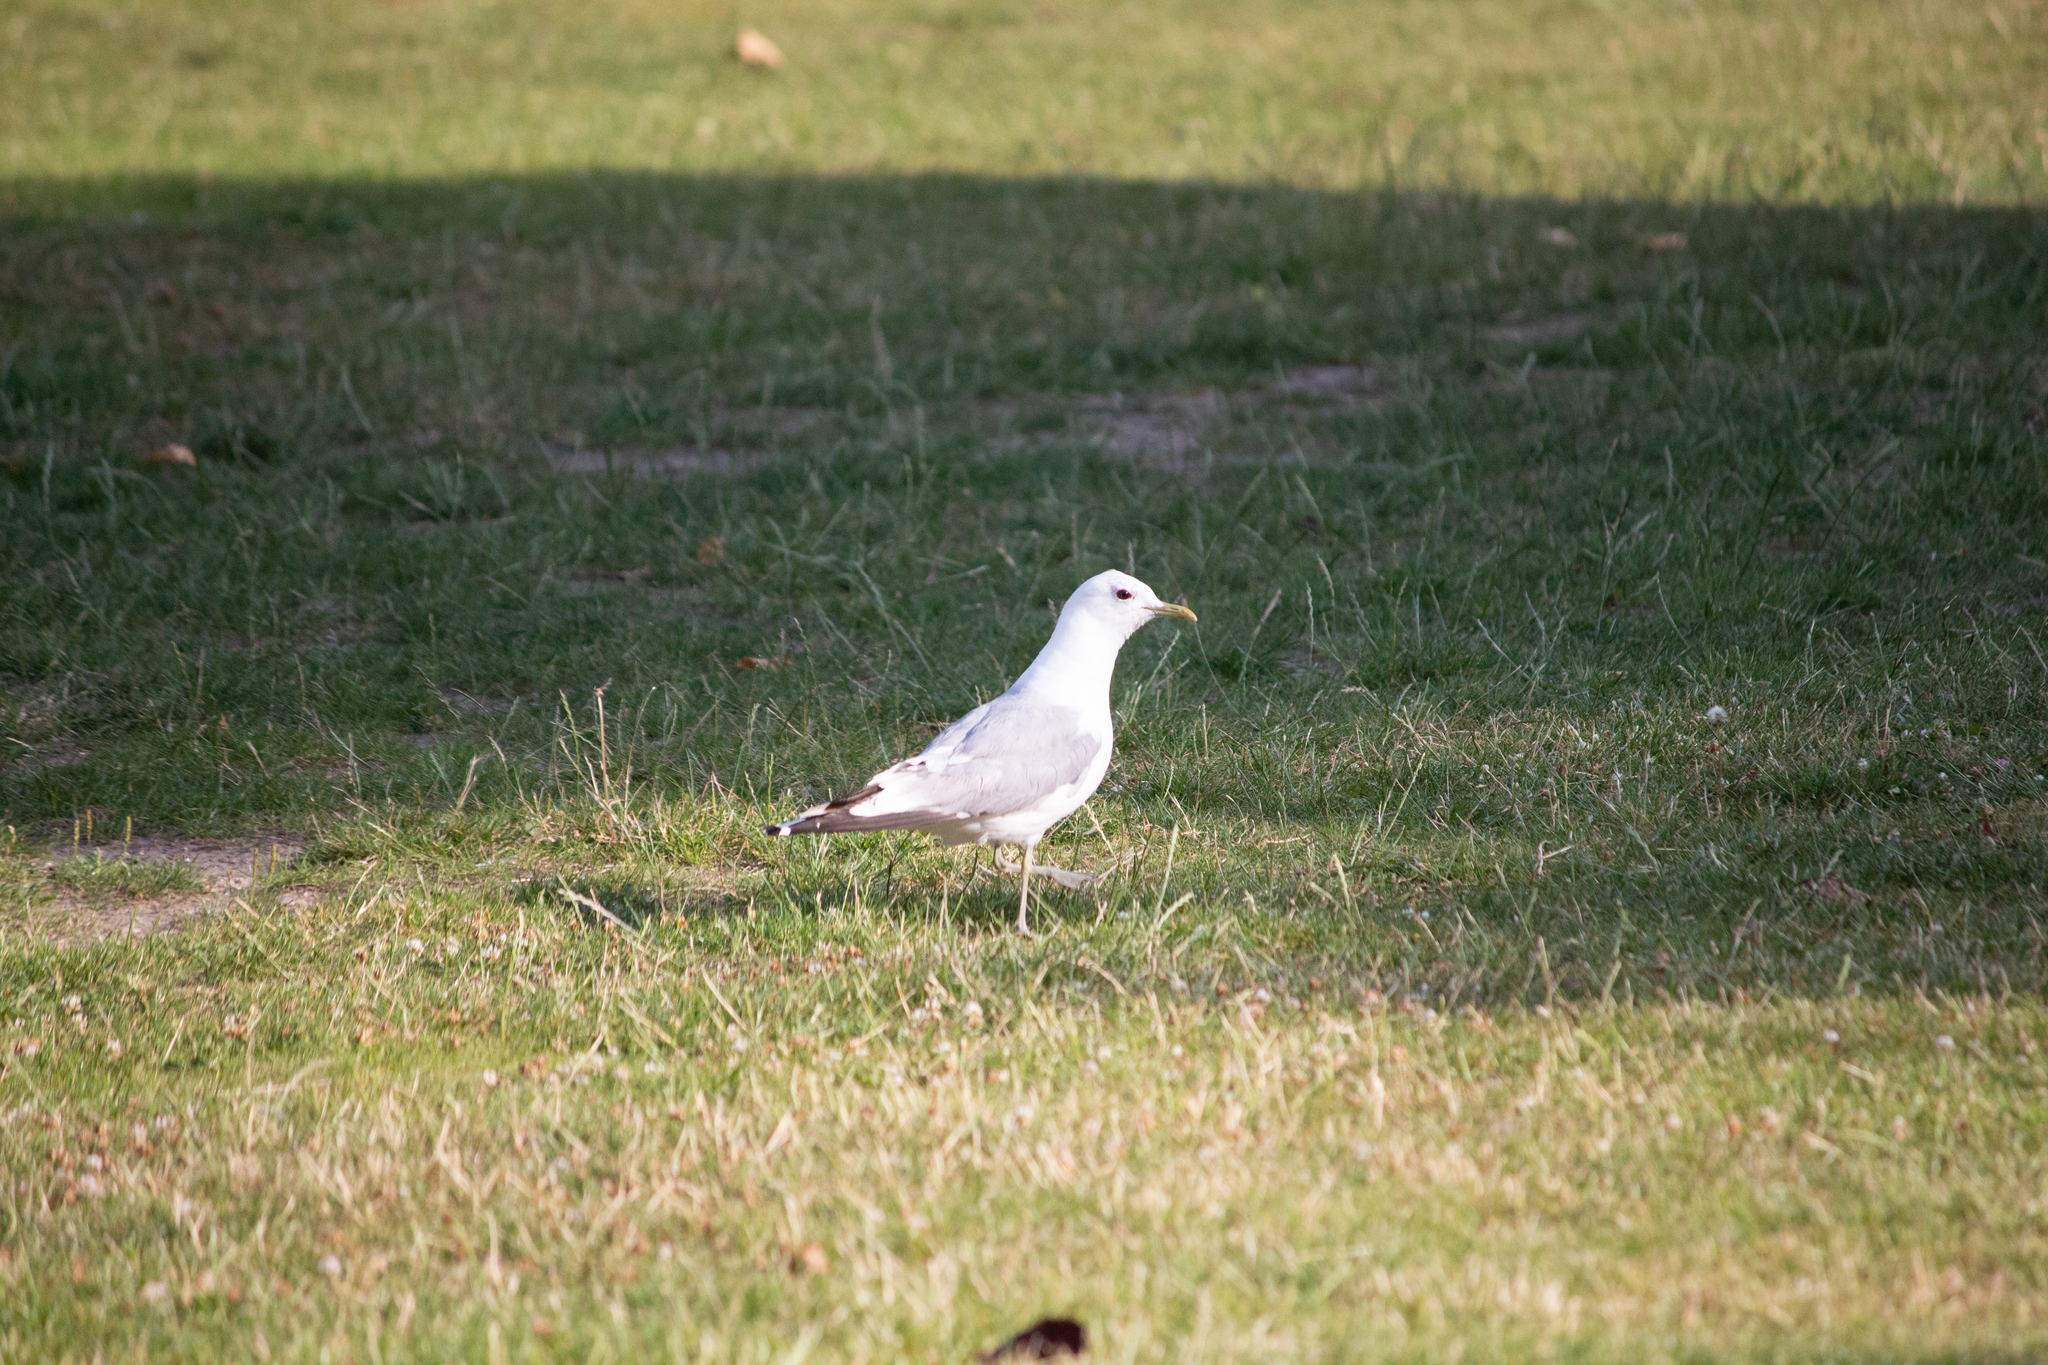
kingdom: Animalia
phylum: Chordata
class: Aves
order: Charadriiformes
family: Laridae
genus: Larus
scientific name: Larus canus
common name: Mew gull
